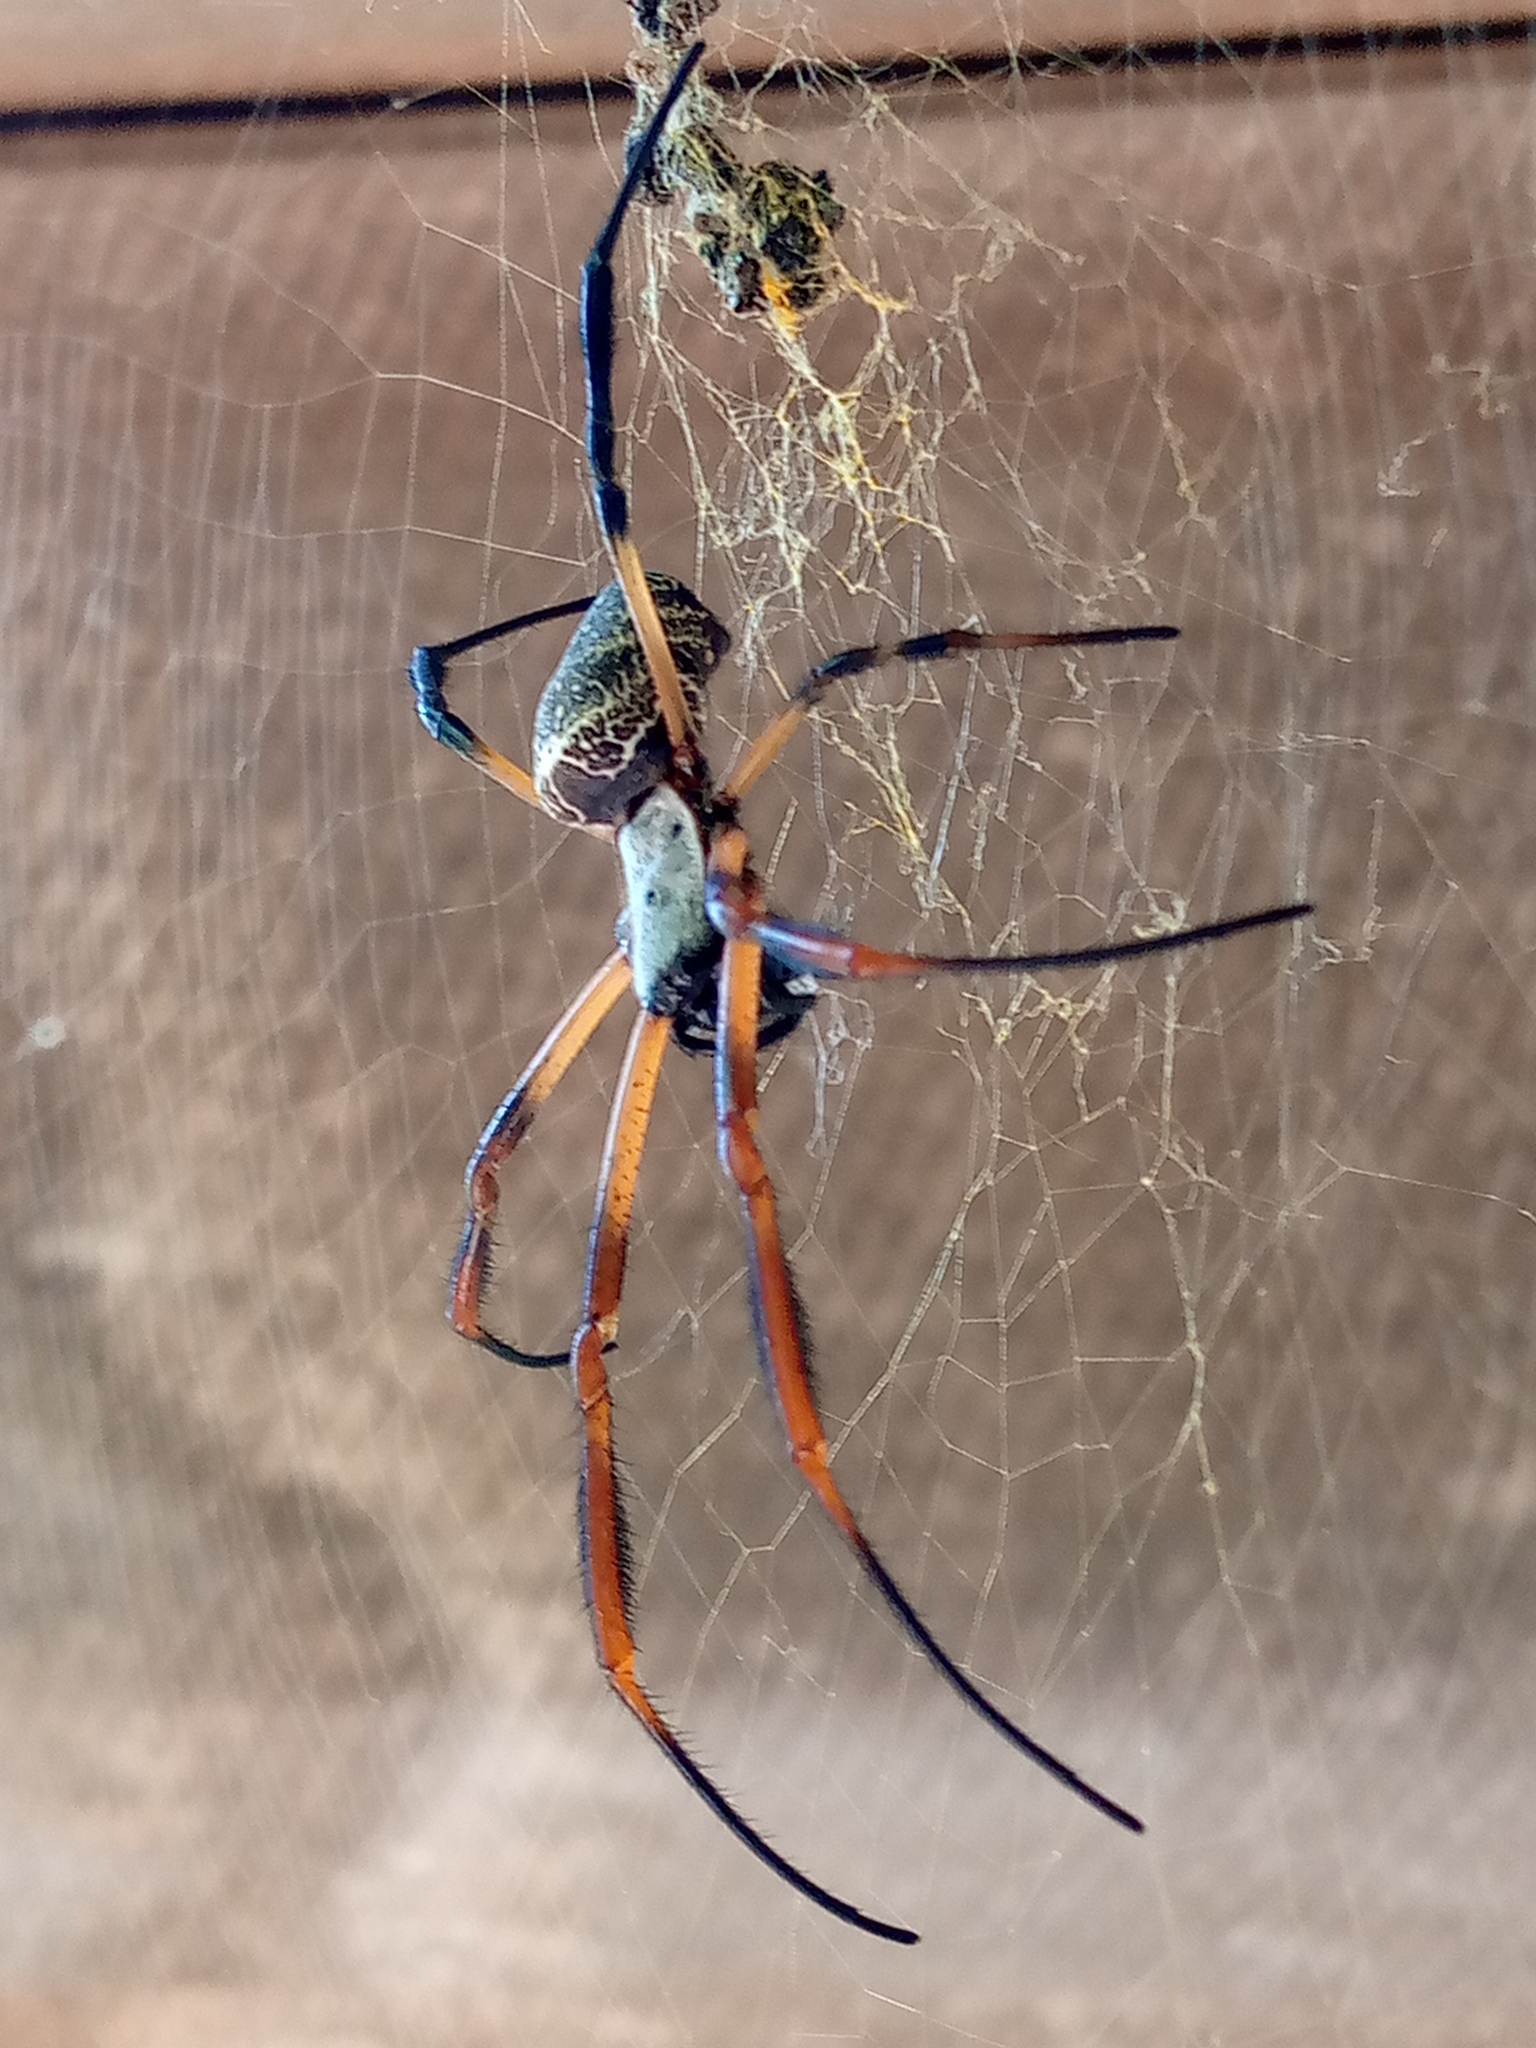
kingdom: Animalia
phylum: Arthropoda
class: Arachnida
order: Araneae
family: Araneidae
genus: Trichonephila
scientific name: Trichonephila sexpunctata
